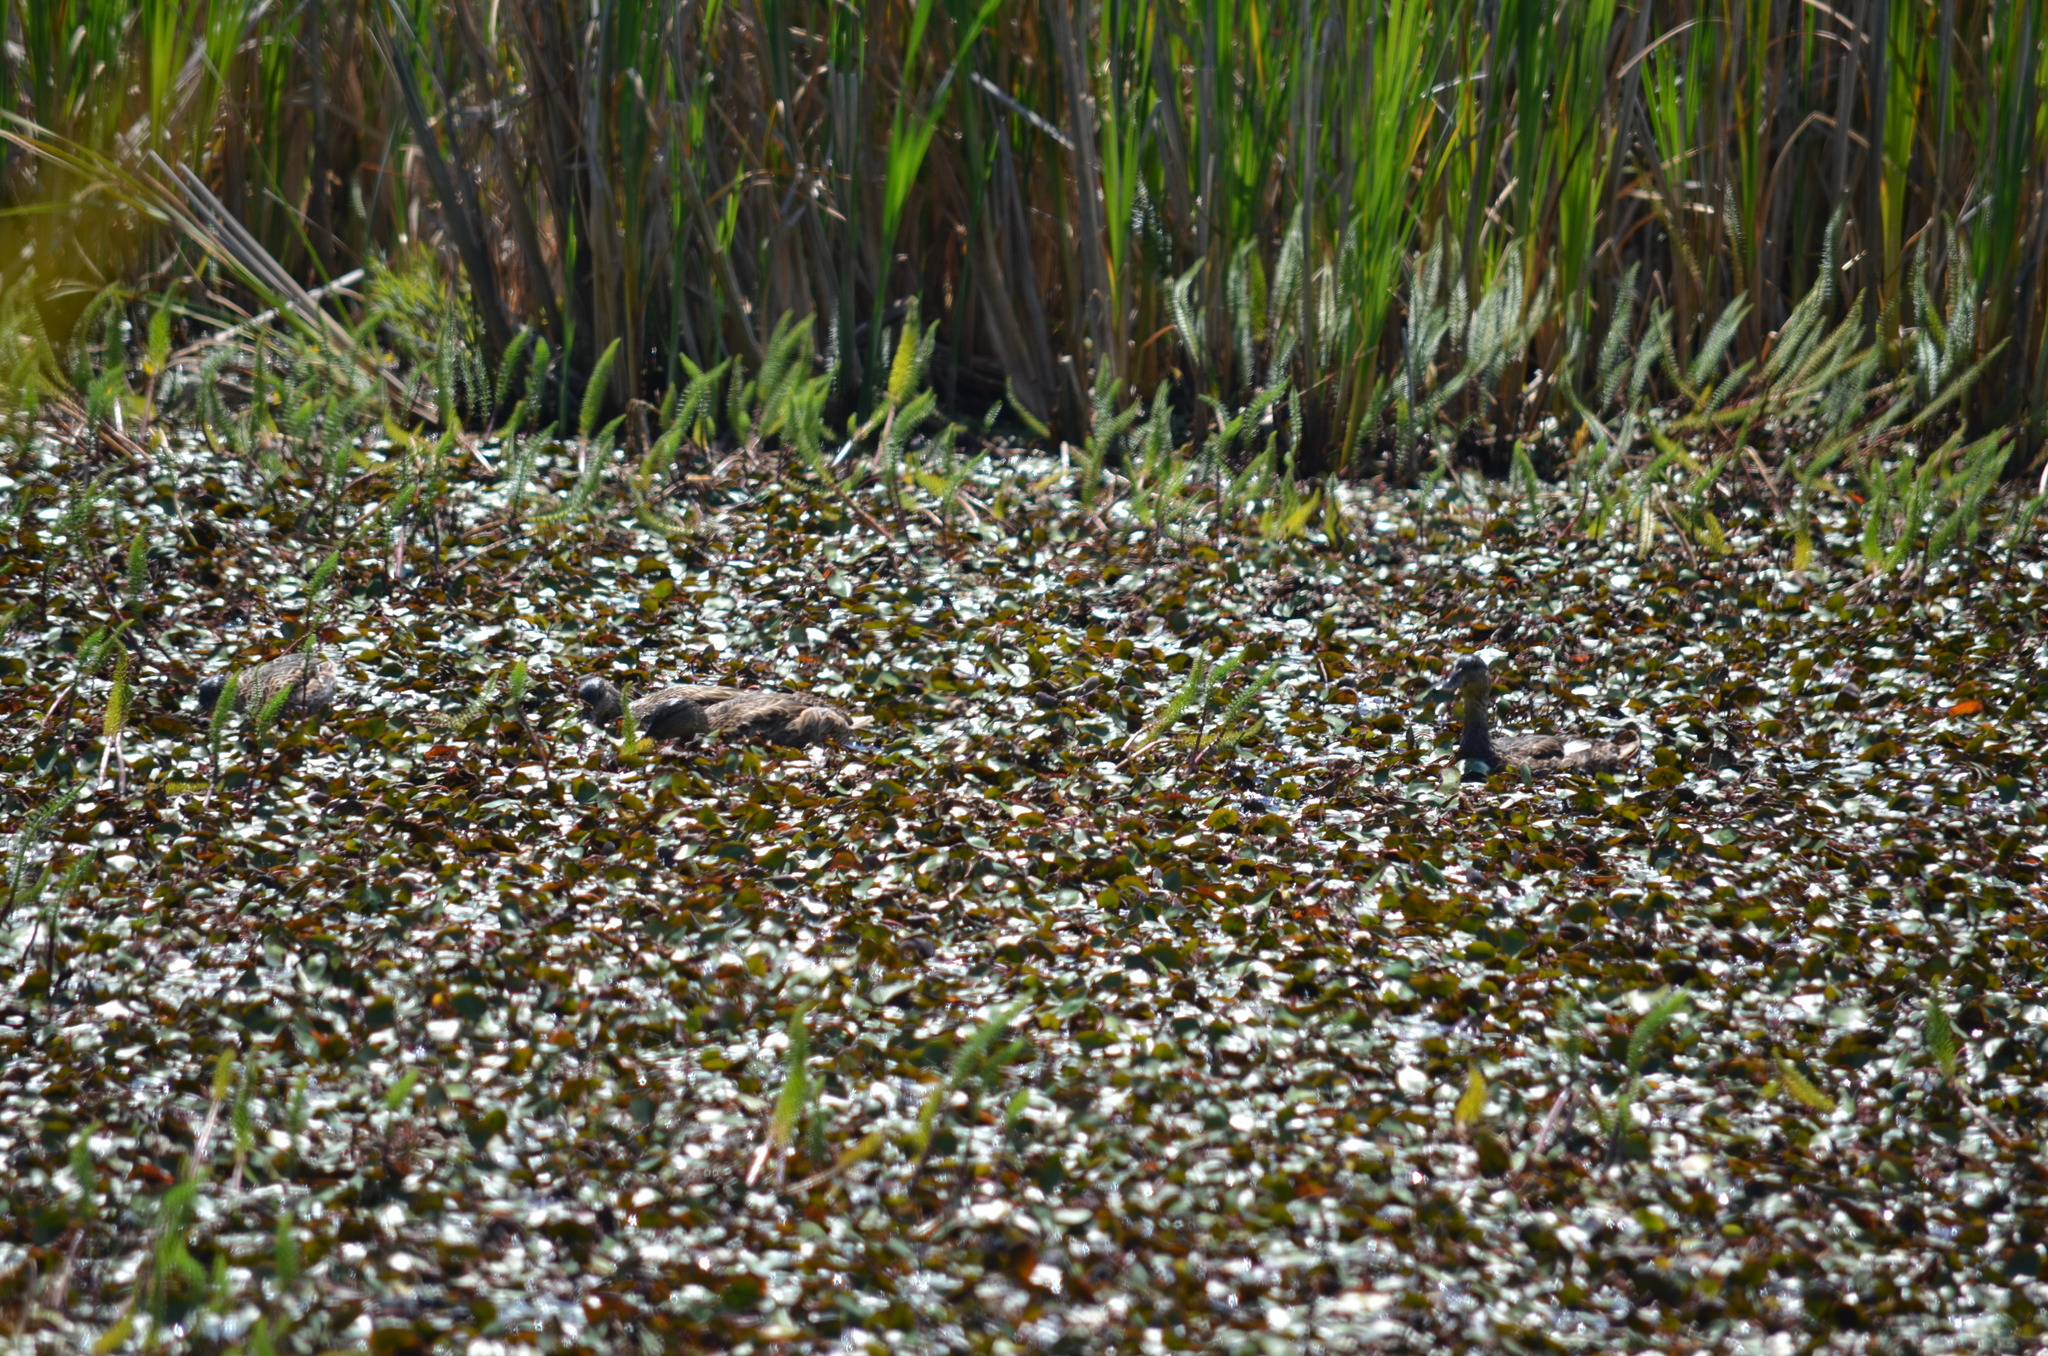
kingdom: Animalia
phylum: Chordata
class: Aves
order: Anseriformes
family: Anatidae
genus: Anas
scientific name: Anas platyrhynchos
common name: Mallard
